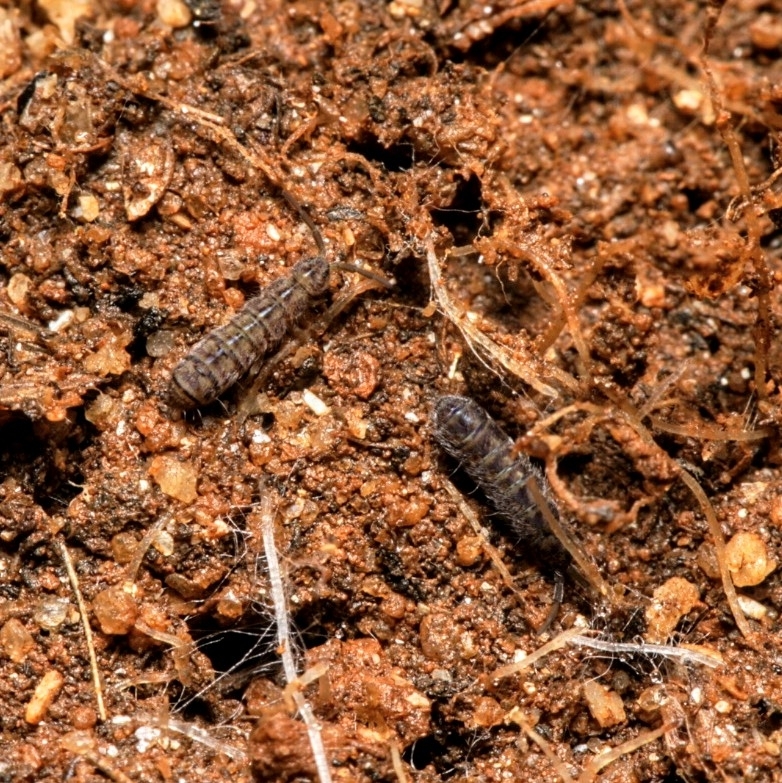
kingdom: Animalia
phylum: Arthropoda
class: Collembola
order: Entomobryomorpha
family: Isotomidae
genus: Isotoma
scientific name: Isotoma delta
